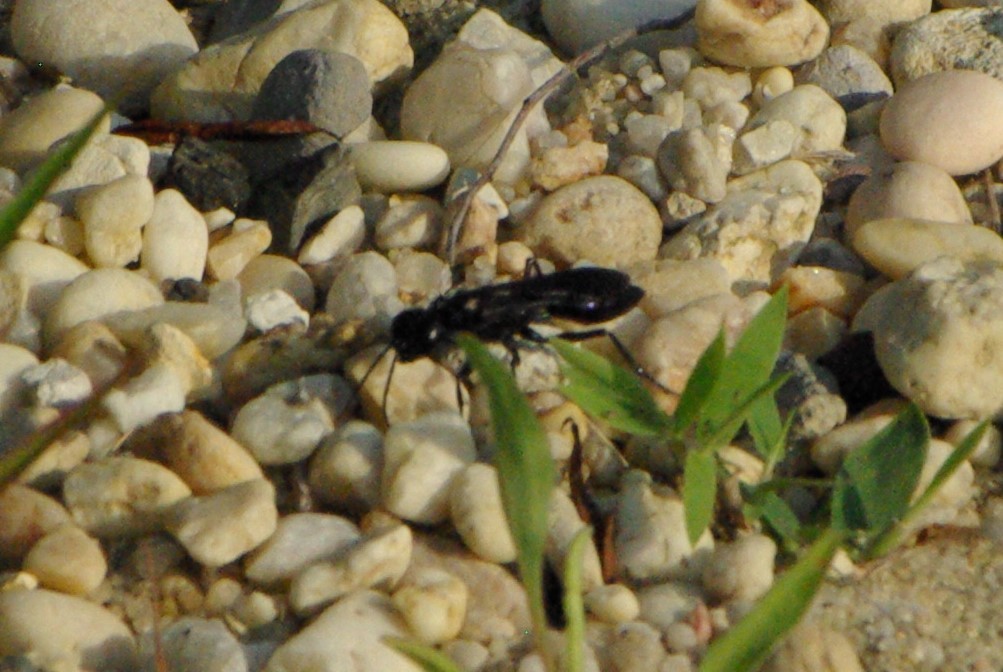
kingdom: Animalia
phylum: Arthropoda
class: Insecta
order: Hymenoptera
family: Sphecidae
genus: Chlorion
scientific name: Chlorion aerarium
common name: Steel-blue cricket hunter
